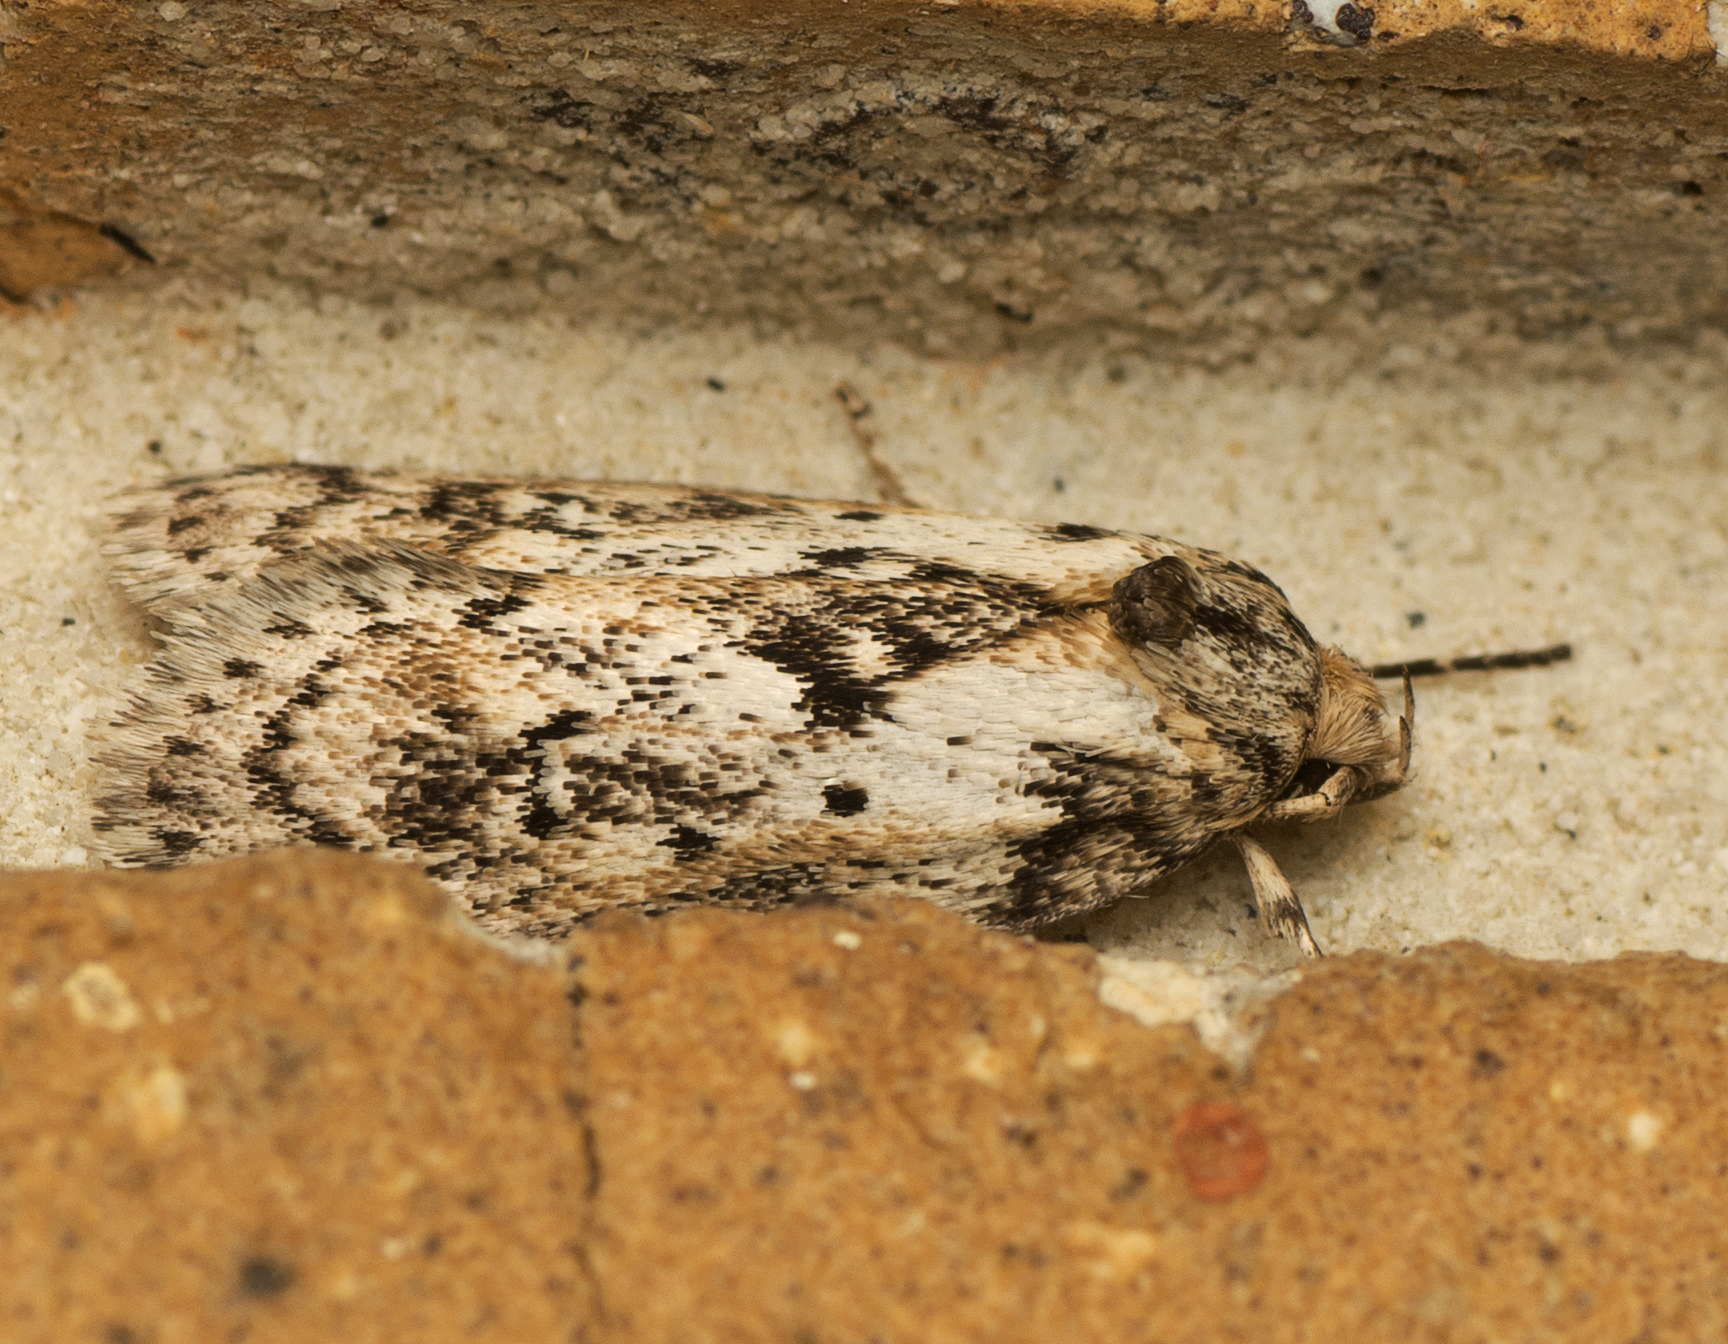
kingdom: Animalia
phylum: Arthropoda
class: Insecta
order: Lepidoptera
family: Oecophoridae
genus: Philobota
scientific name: Philobota baryptera
